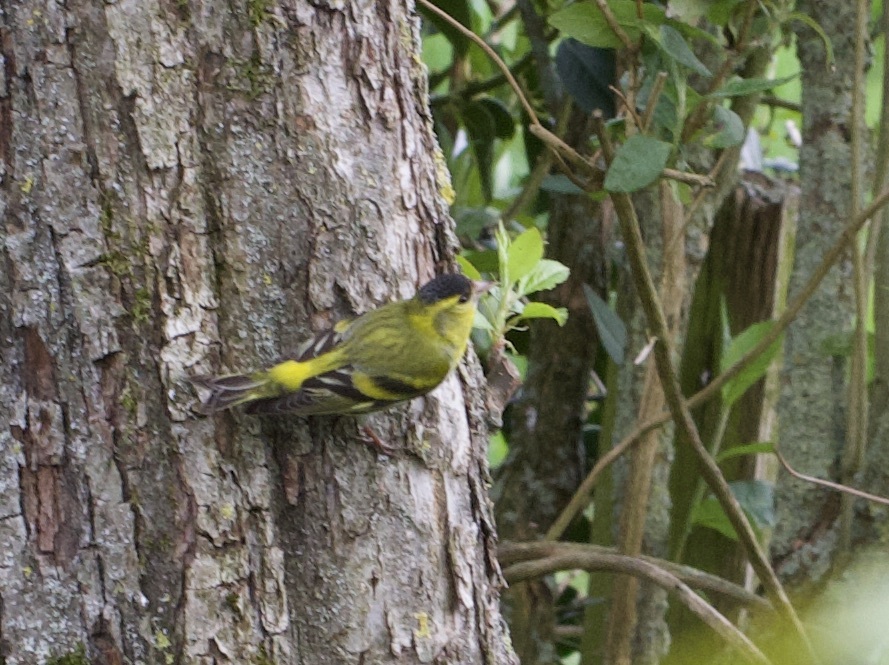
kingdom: Animalia
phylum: Chordata
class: Aves
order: Passeriformes
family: Fringillidae
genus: Spinus
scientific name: Spinus spinus
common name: Eurasian siskin
